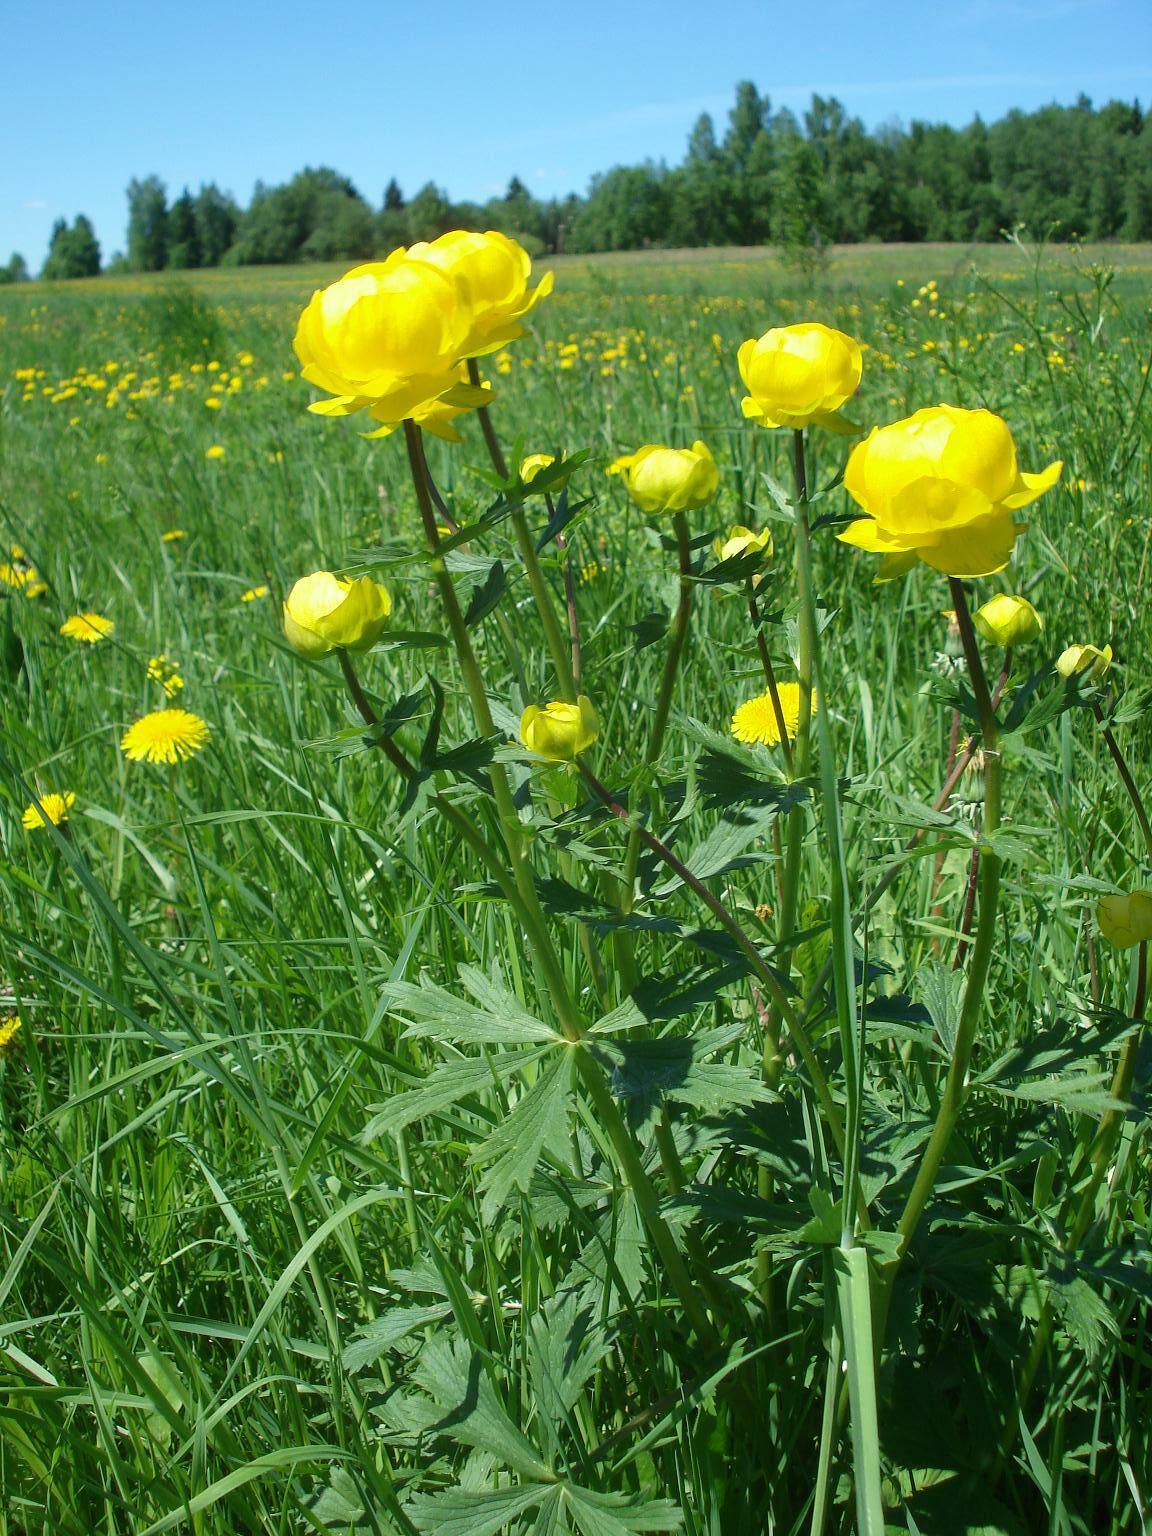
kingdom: Plantae
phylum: Tracheophyta
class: Magnoliopsida
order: Ranunculales
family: Ranunculaceae
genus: Trollius
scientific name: Trollius europaeus
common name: European globeflower
